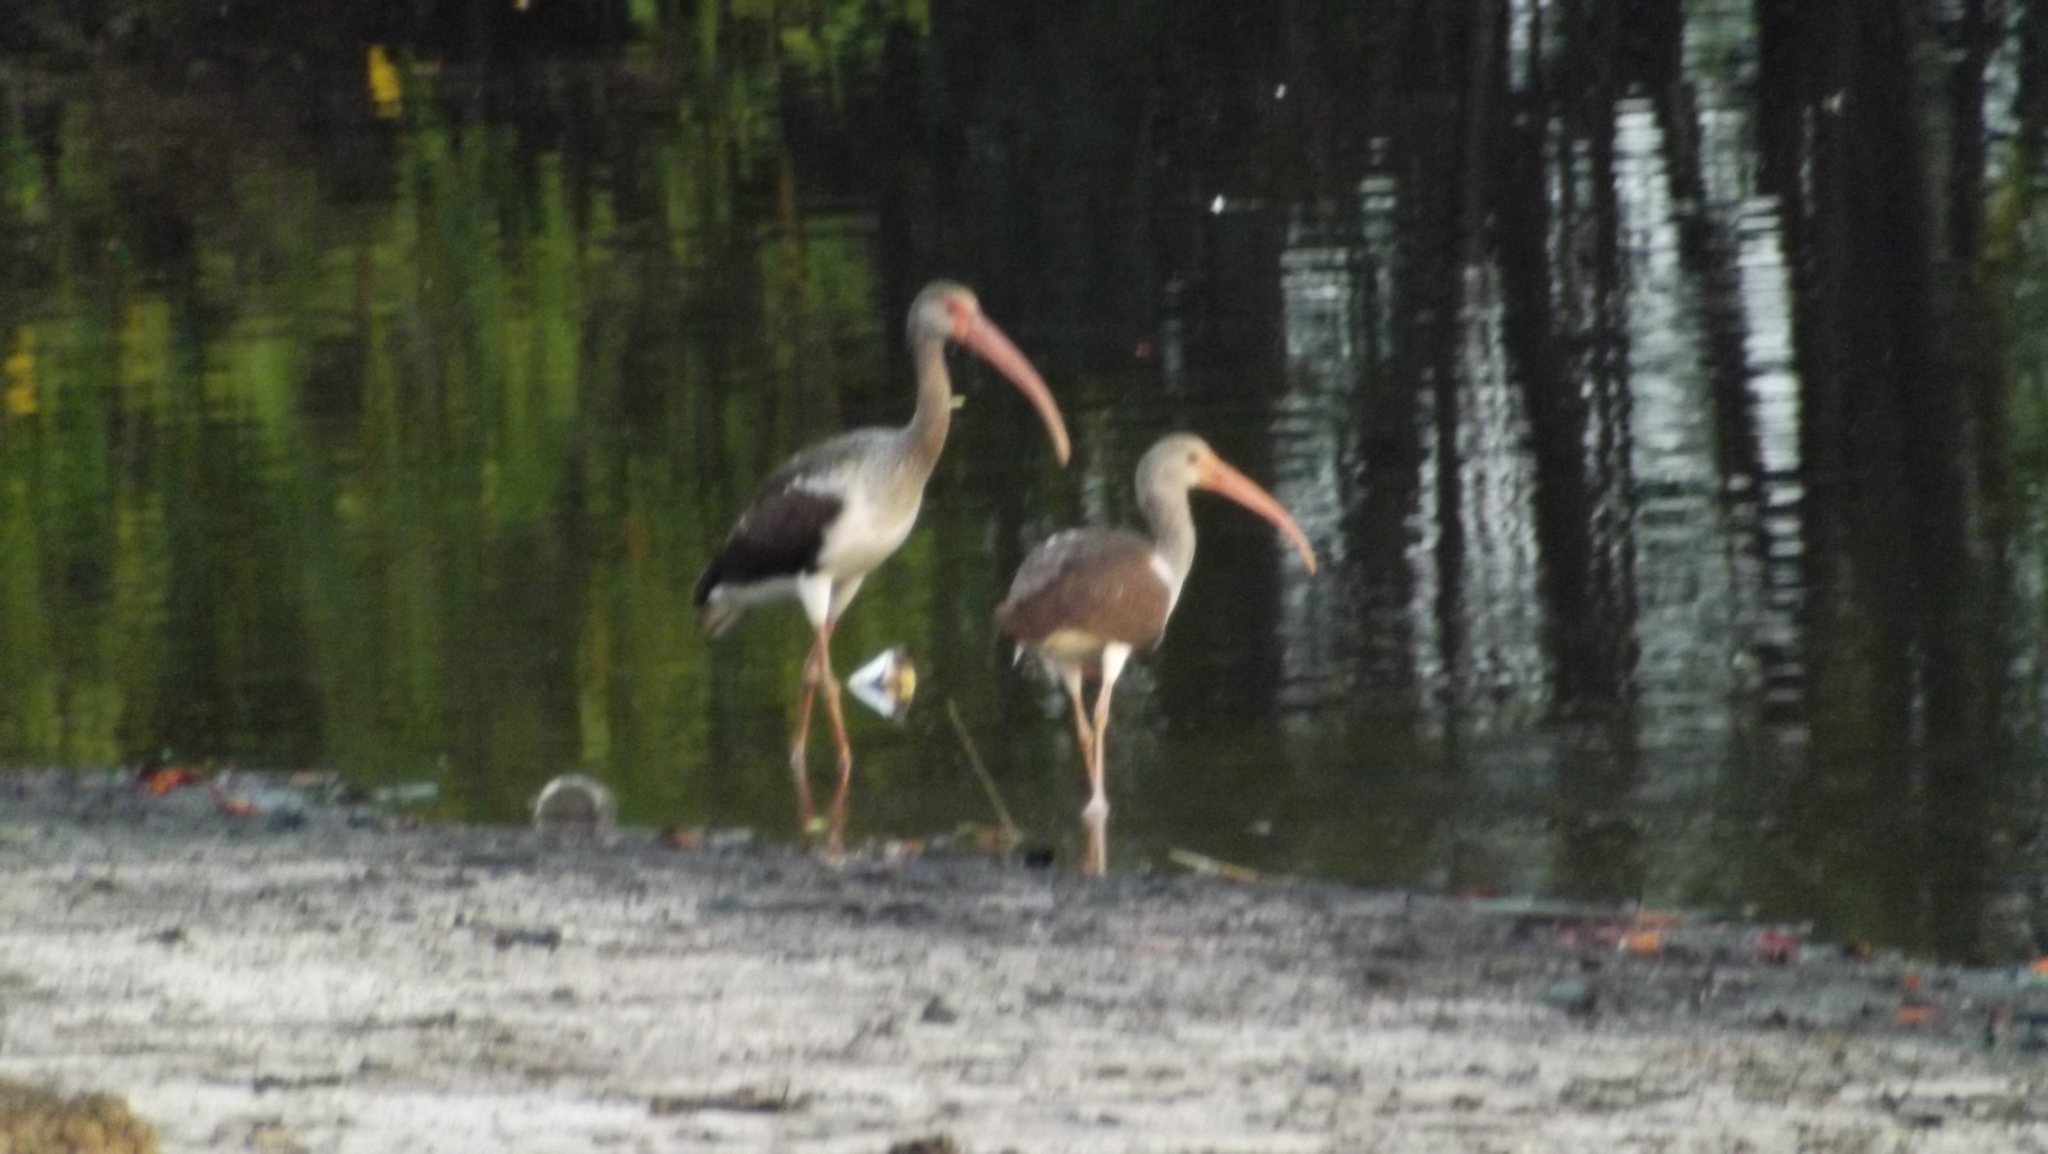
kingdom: Animalia
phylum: Chordata
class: Aves
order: Pelecaniformes
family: Threskiornithidae
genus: Eudocimus
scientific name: Eudocimus albus
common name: White ibis
